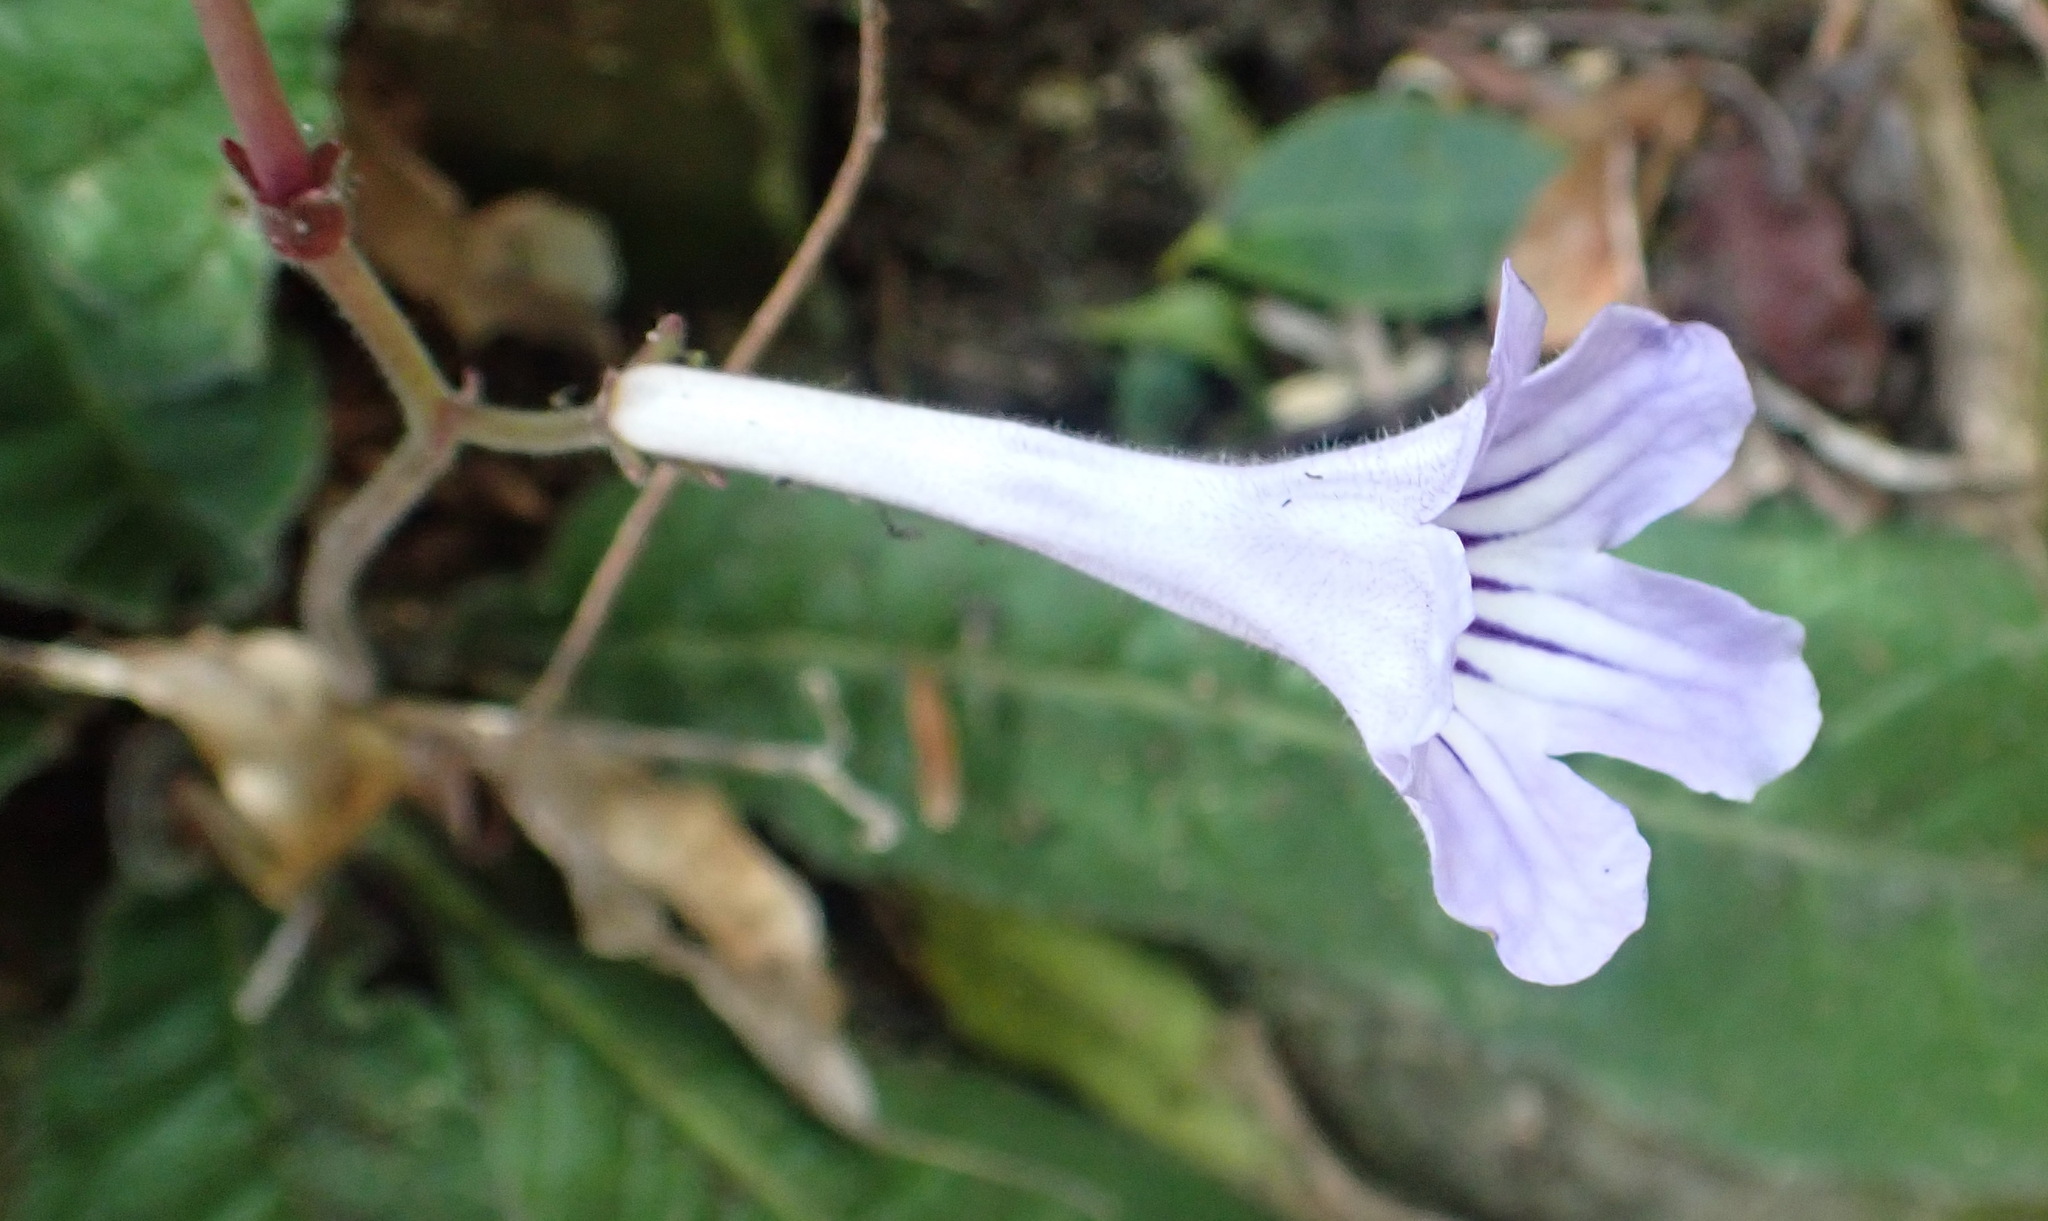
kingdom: Plantae
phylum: Tracheophyta
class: Magnoliopsida
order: Lamiales
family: Gesneriaceae
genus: Streptocarpus
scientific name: Streptocarpus rexii
